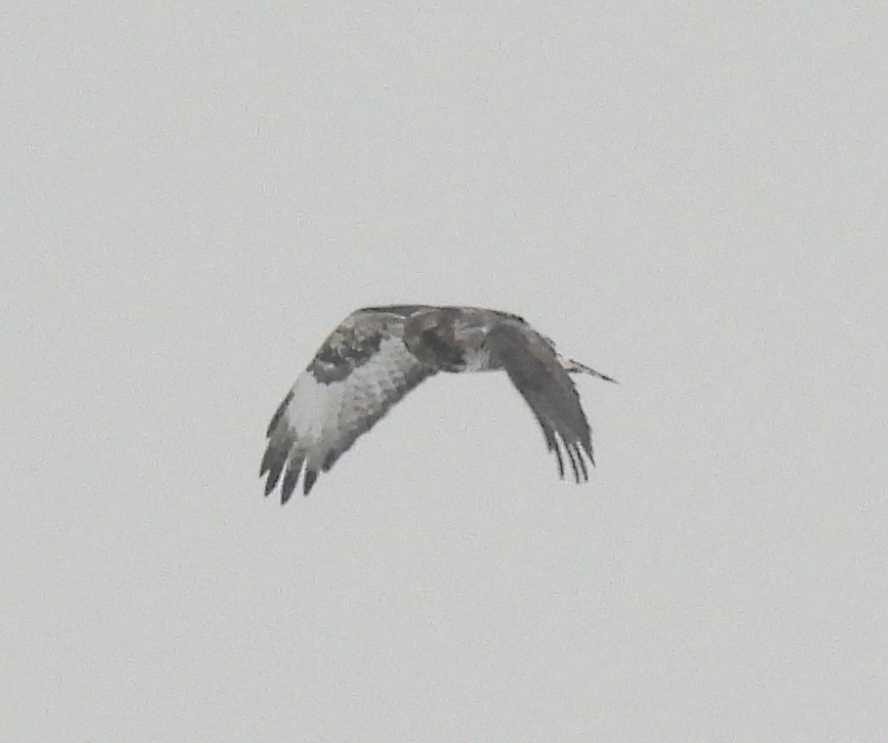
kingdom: Animalia
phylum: Chordata
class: Aves
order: Accipitriformes
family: Accipitridae
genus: Buteo
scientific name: Buteo lagopus
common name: Rough-legged buzzard
